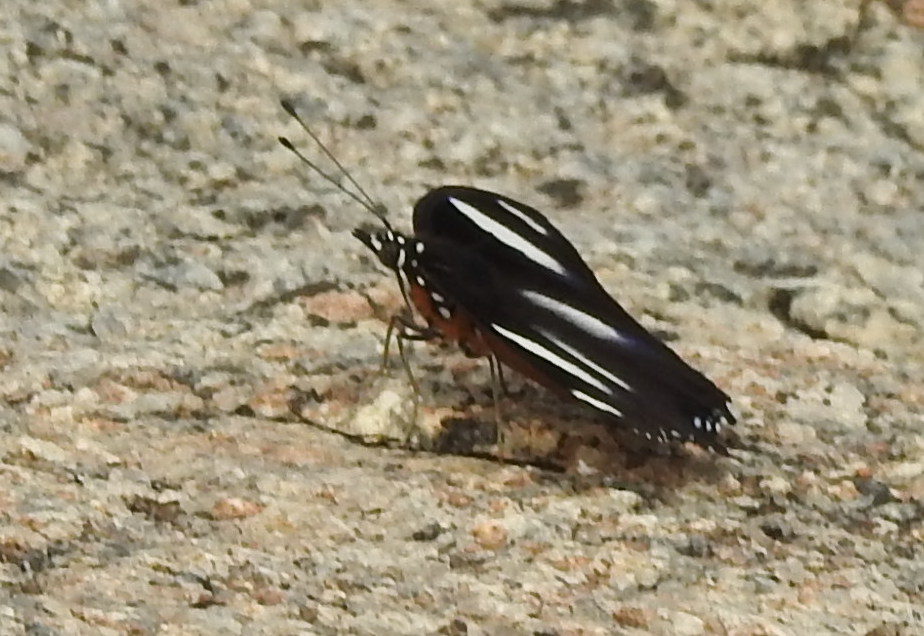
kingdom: Animalia
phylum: Arthropoda
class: Insecta
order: Lepidoptera
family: Nymphalidae
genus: Hypolimnas
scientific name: Hypolimnas misippus
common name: False plain tiger
